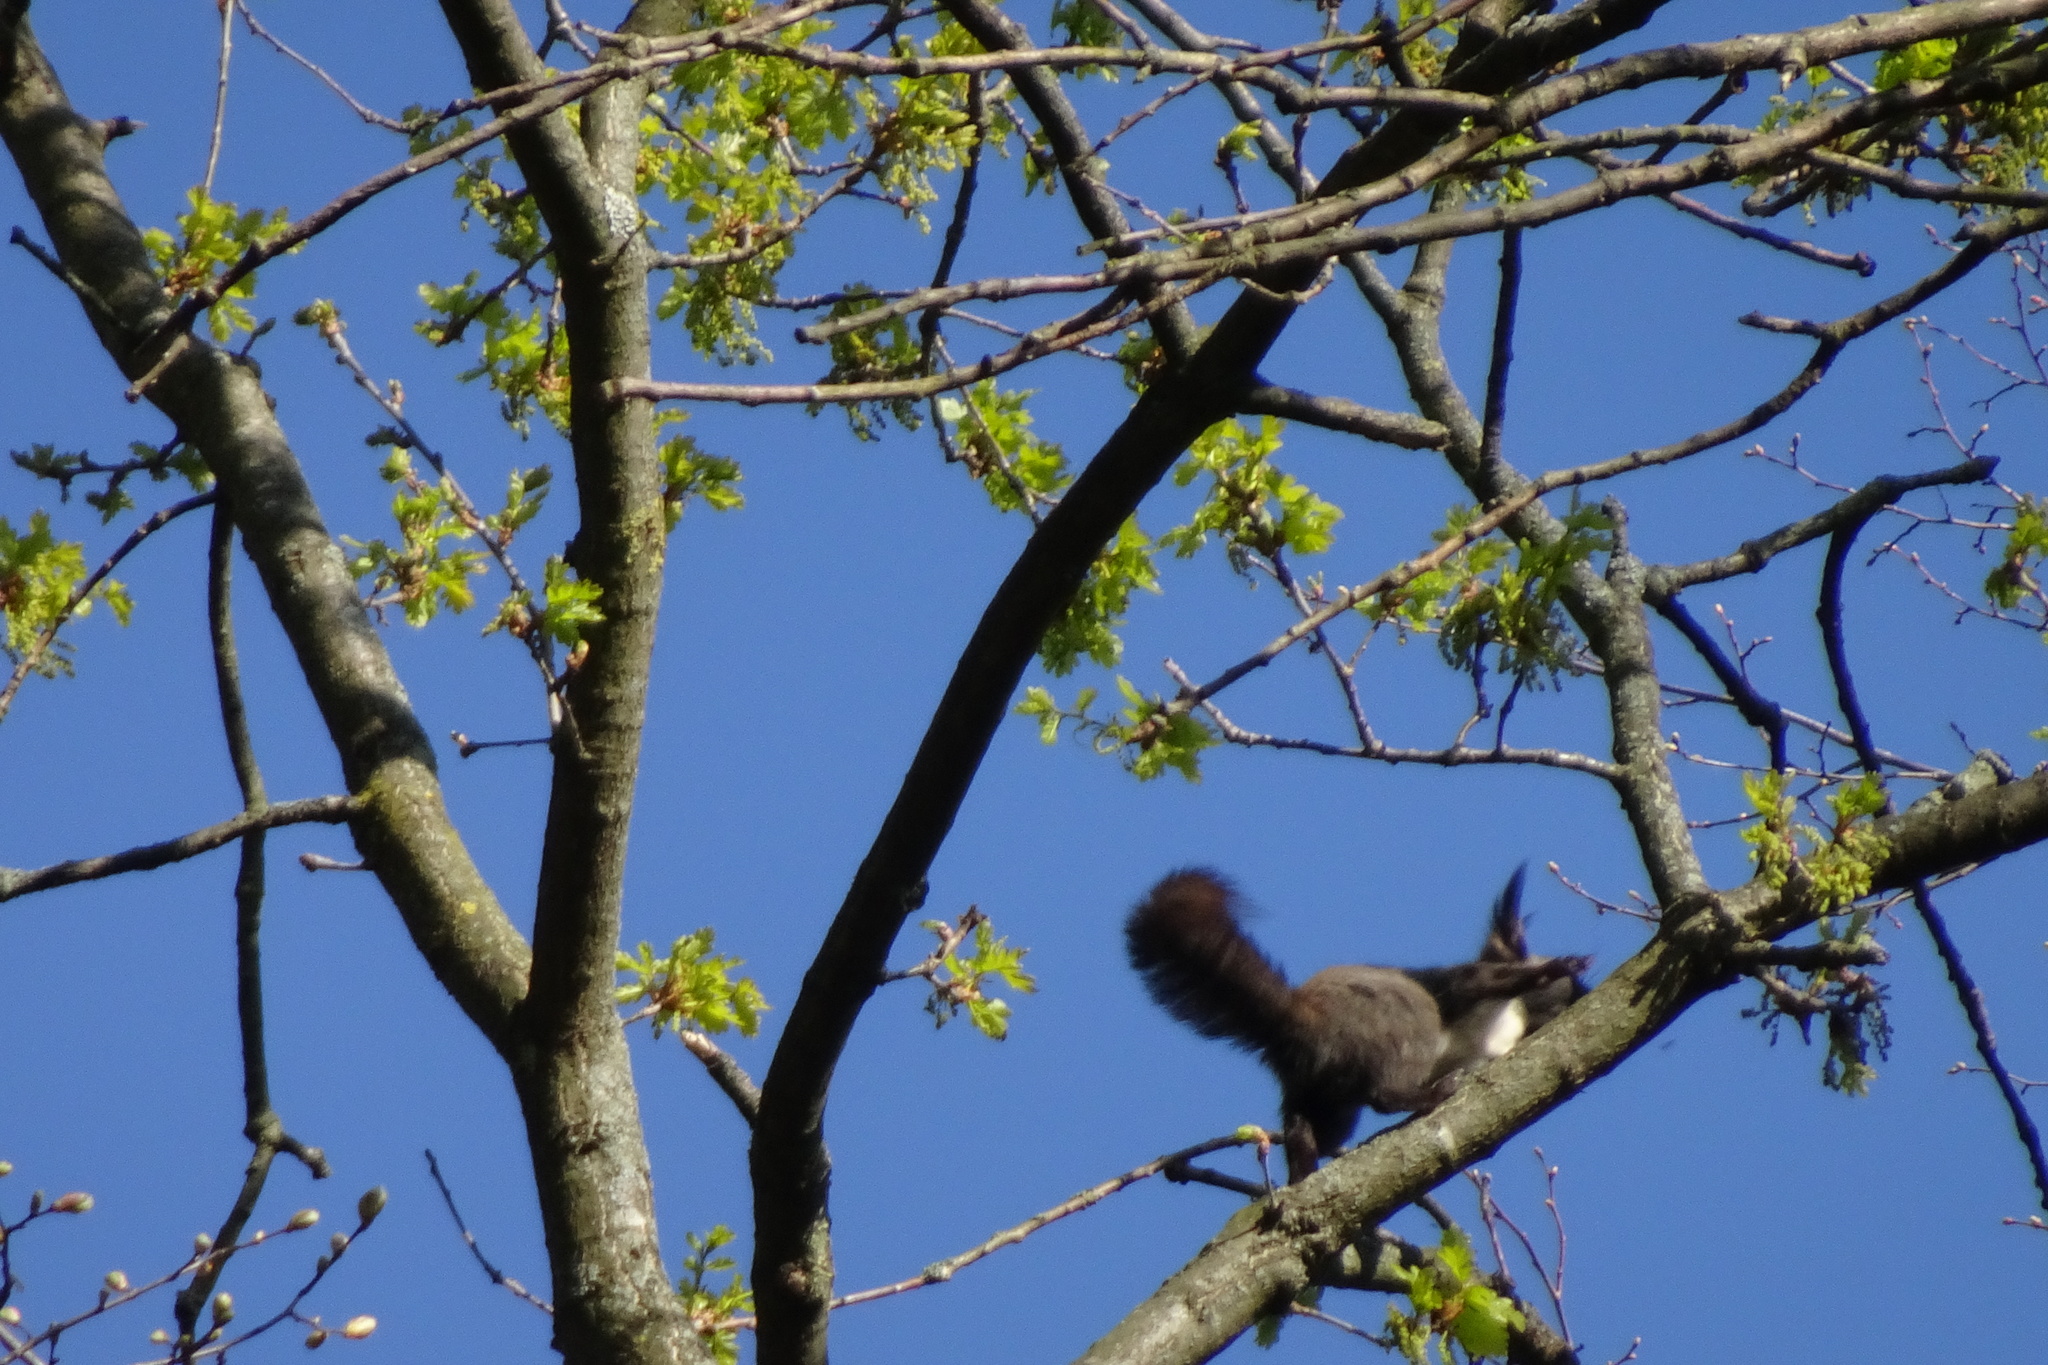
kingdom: Animalia
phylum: Chordata
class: Mammalia
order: Rodentia
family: Sciuridae
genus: Sciurus
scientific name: Sciurus vulgaris
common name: Eurasian red squirrel
